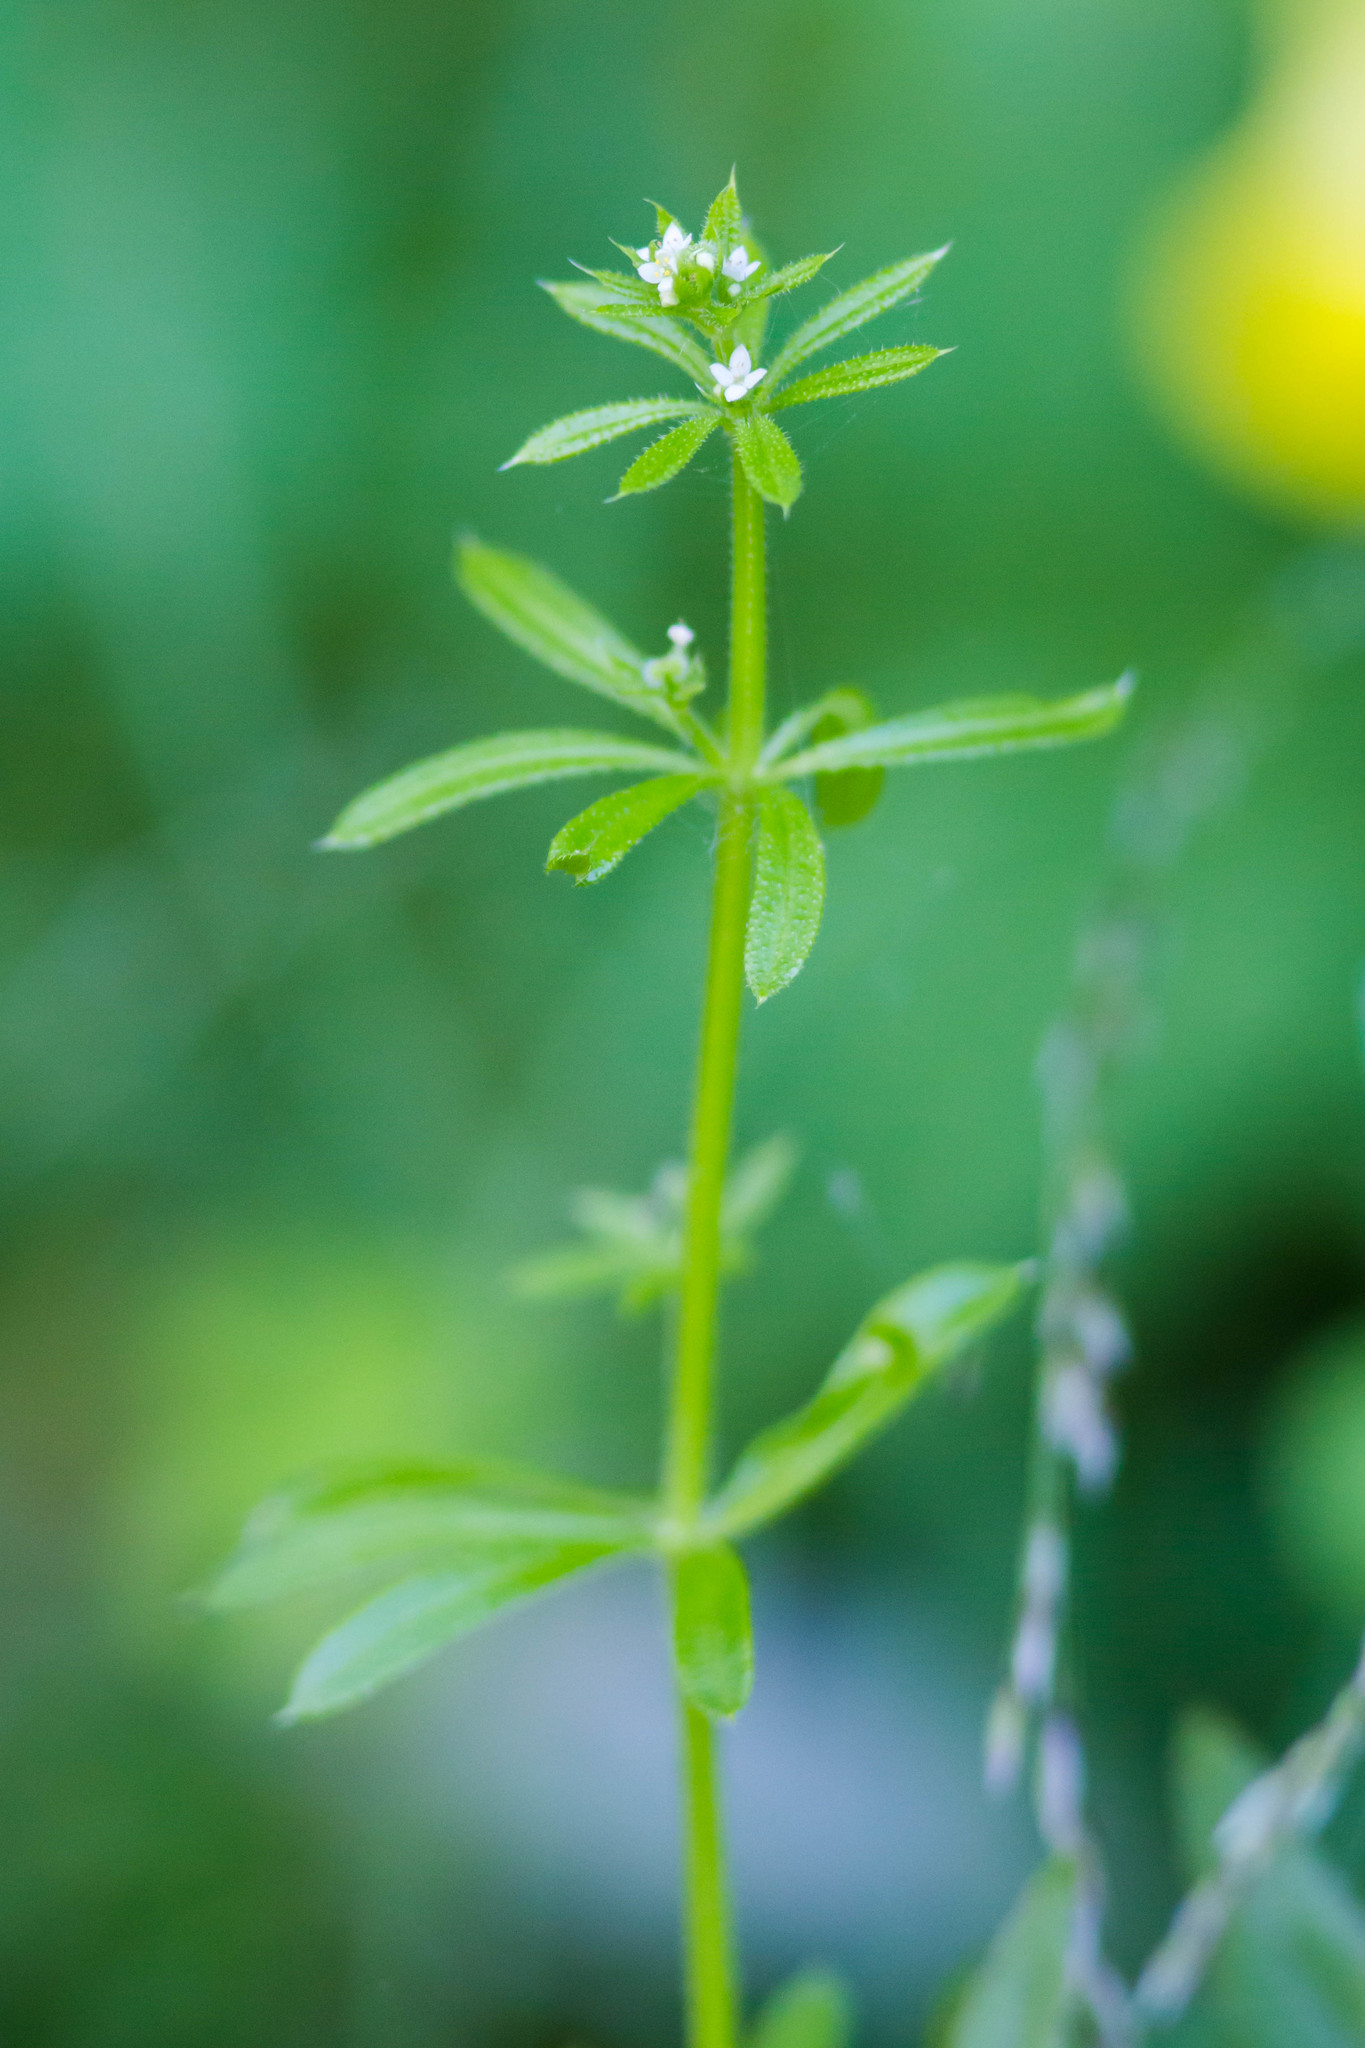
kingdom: Plantae
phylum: Tracheophyta
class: Magnoliopsida
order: Gentianales
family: Rubiaceae
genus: Galium
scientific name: Galium aparine
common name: Cleavers
